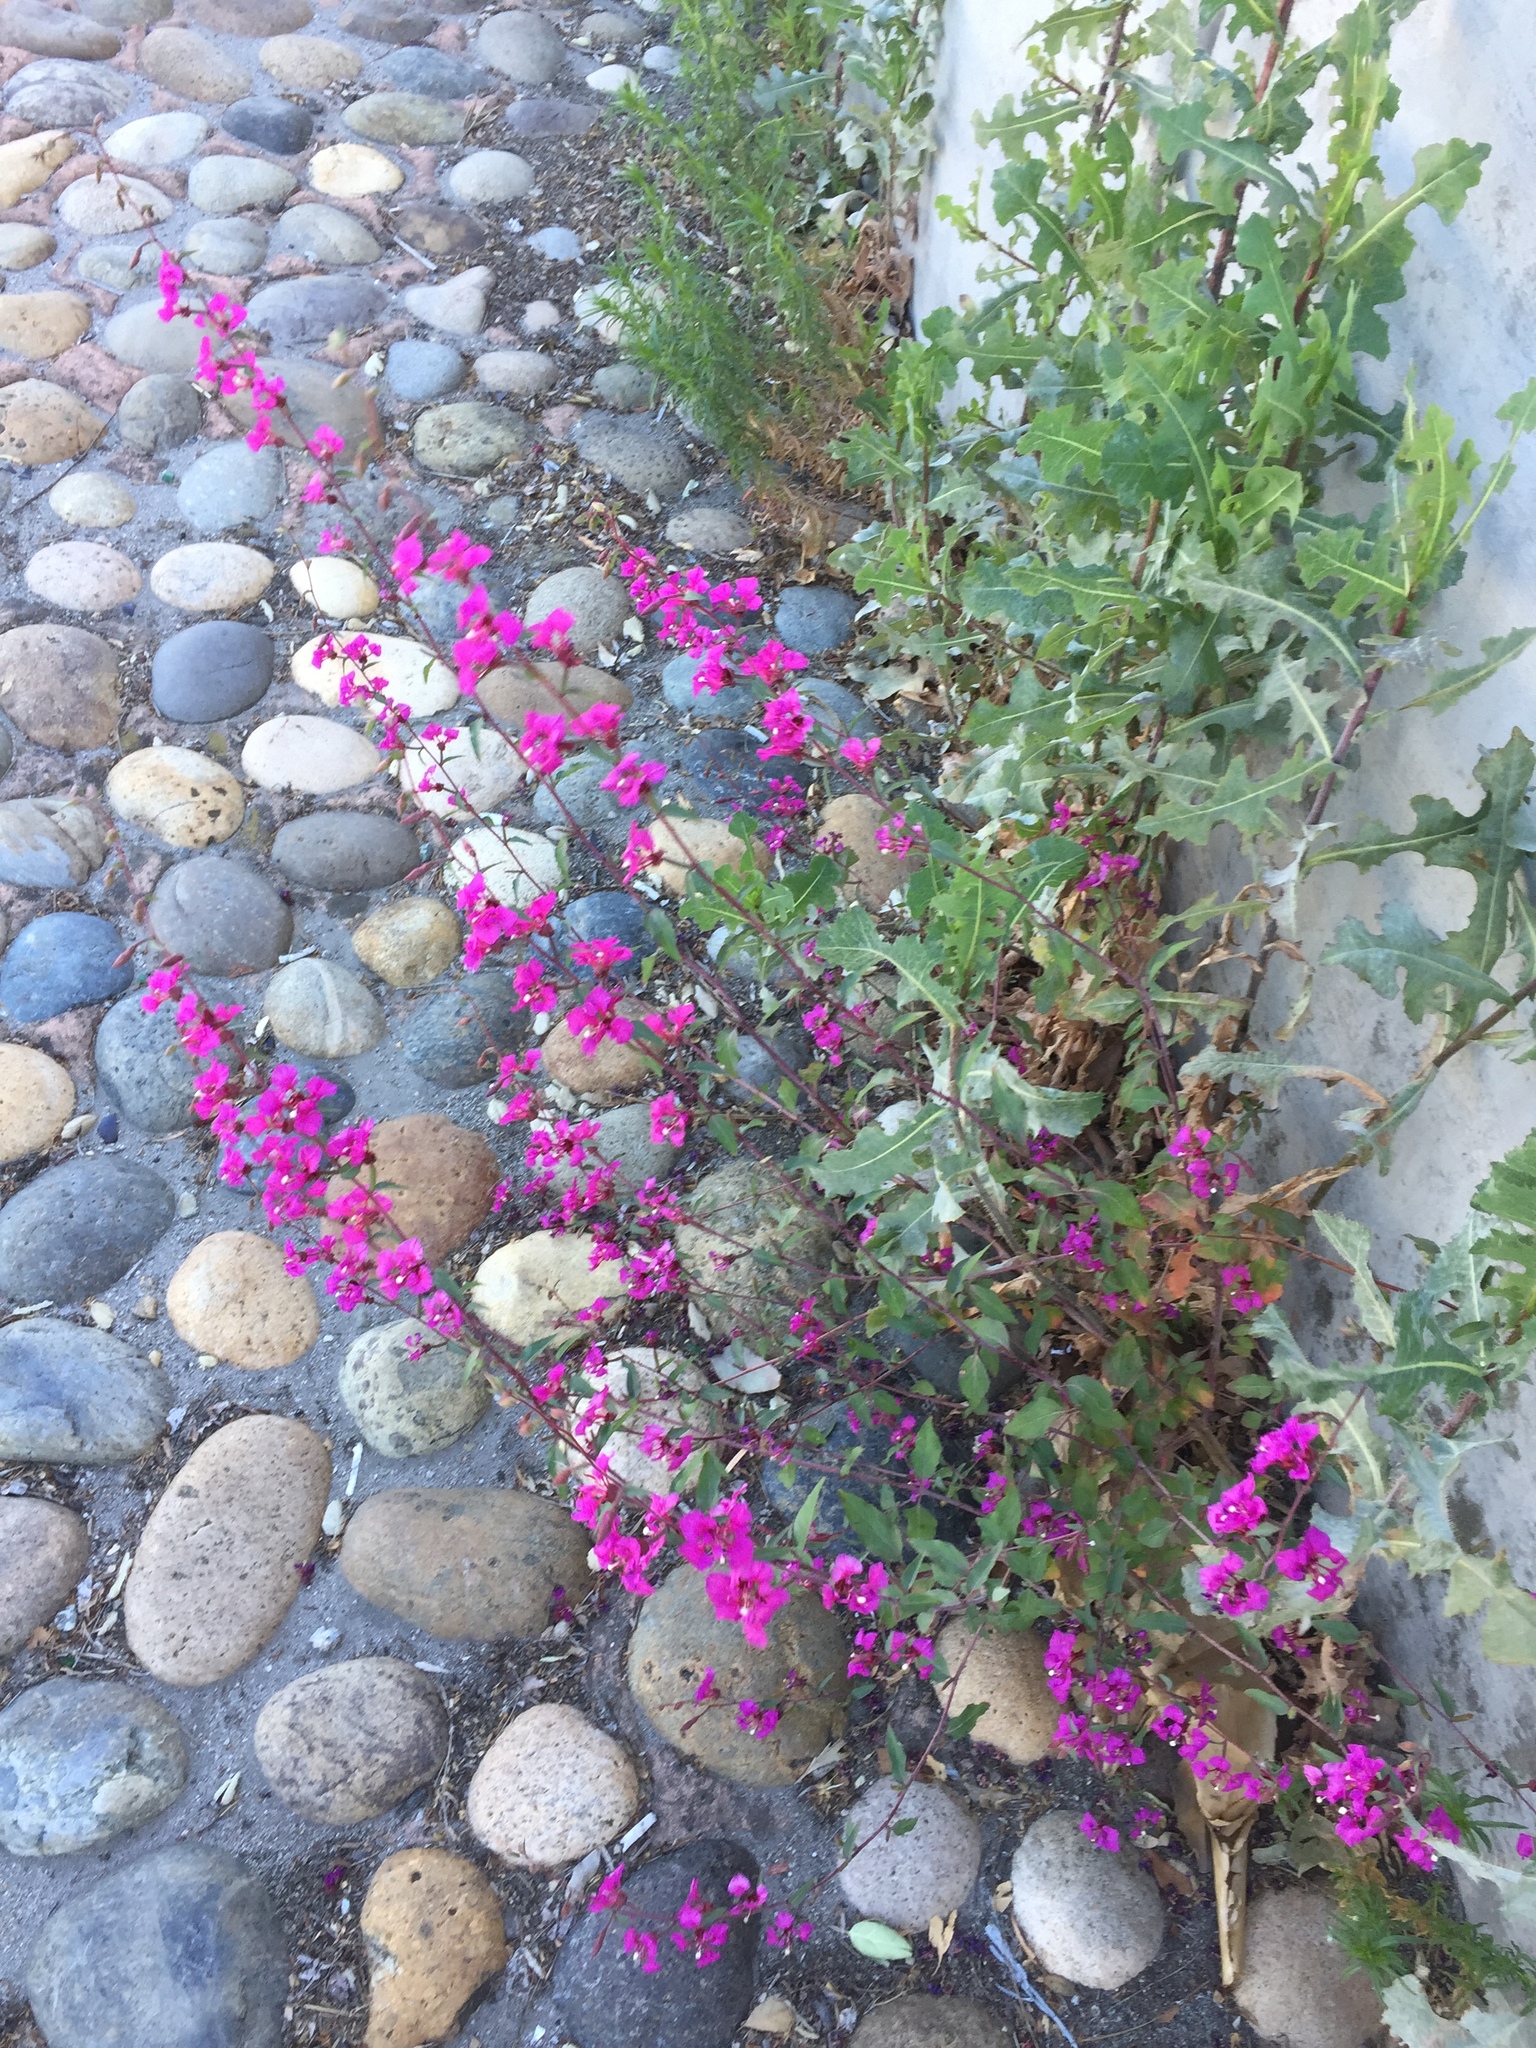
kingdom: Plantae
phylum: Tracheophyta
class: Magnoliopsida
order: Myrtales
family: Onagraceae
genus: Clarkia
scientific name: Clarkia unguiculata
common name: Clarkia
